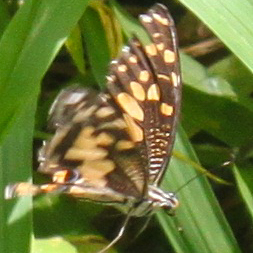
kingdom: Animalia
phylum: Arthropoda
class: Insecta
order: Lepidoptera
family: Papilionidae
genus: Papilio
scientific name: Papilio demoleus
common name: Lime butterfly
